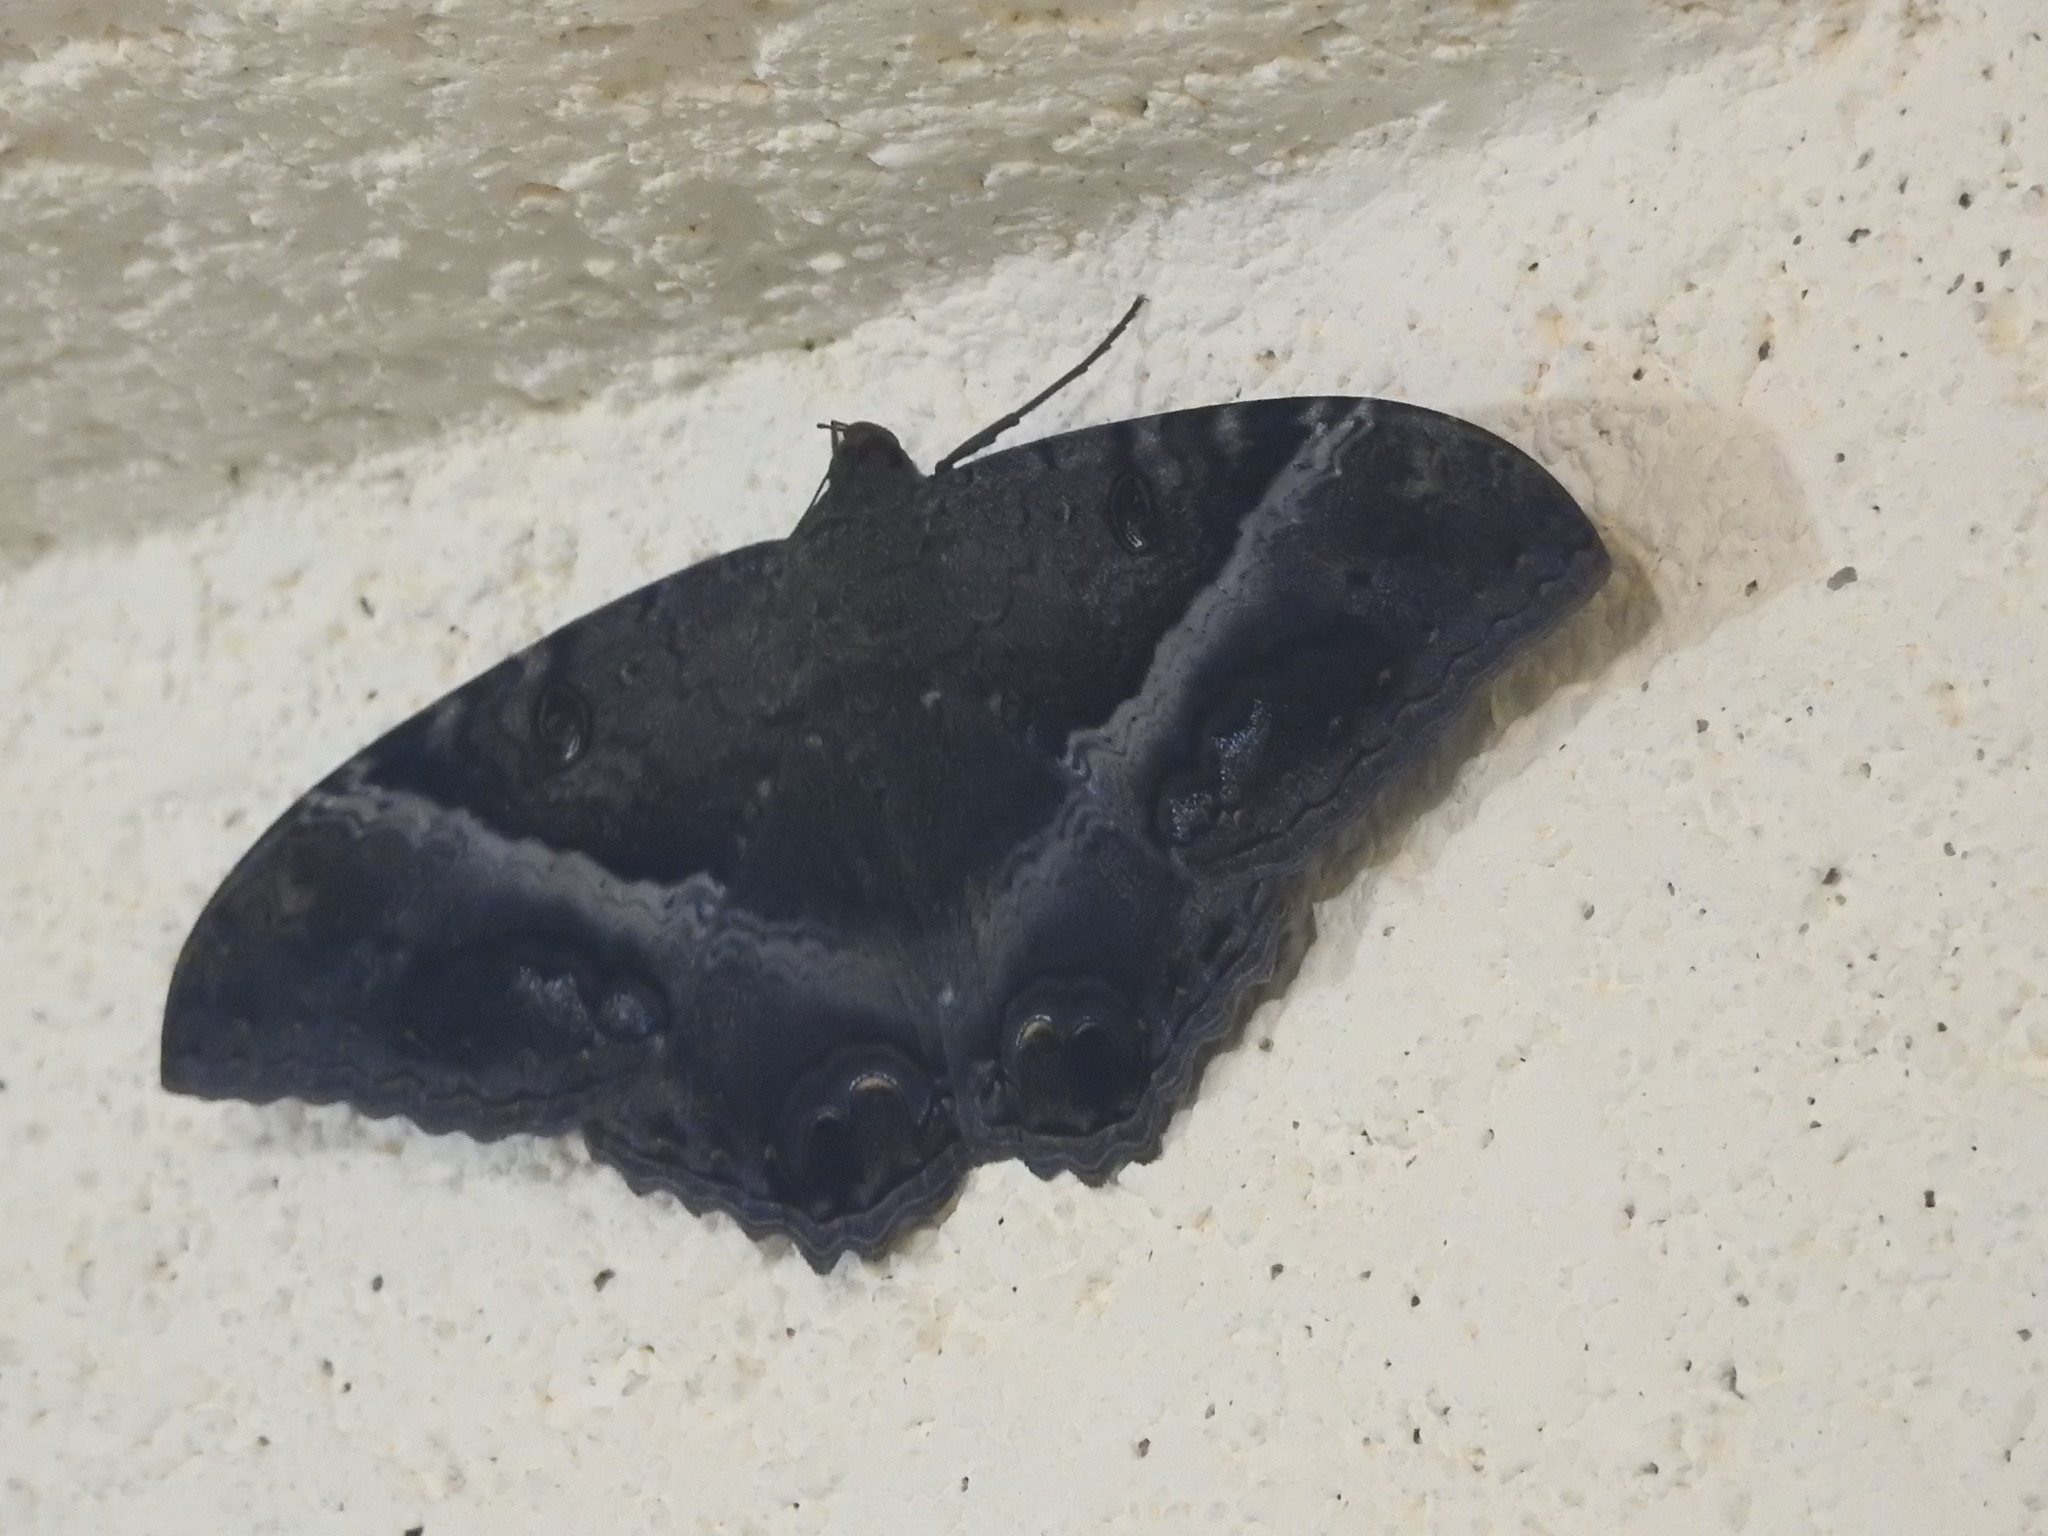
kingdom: Animalia
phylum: Arthropoda
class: Insecta
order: Lepidoptera
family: Erebidae
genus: Ascalapha
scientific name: Ascalapha odorata
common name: Black witch
